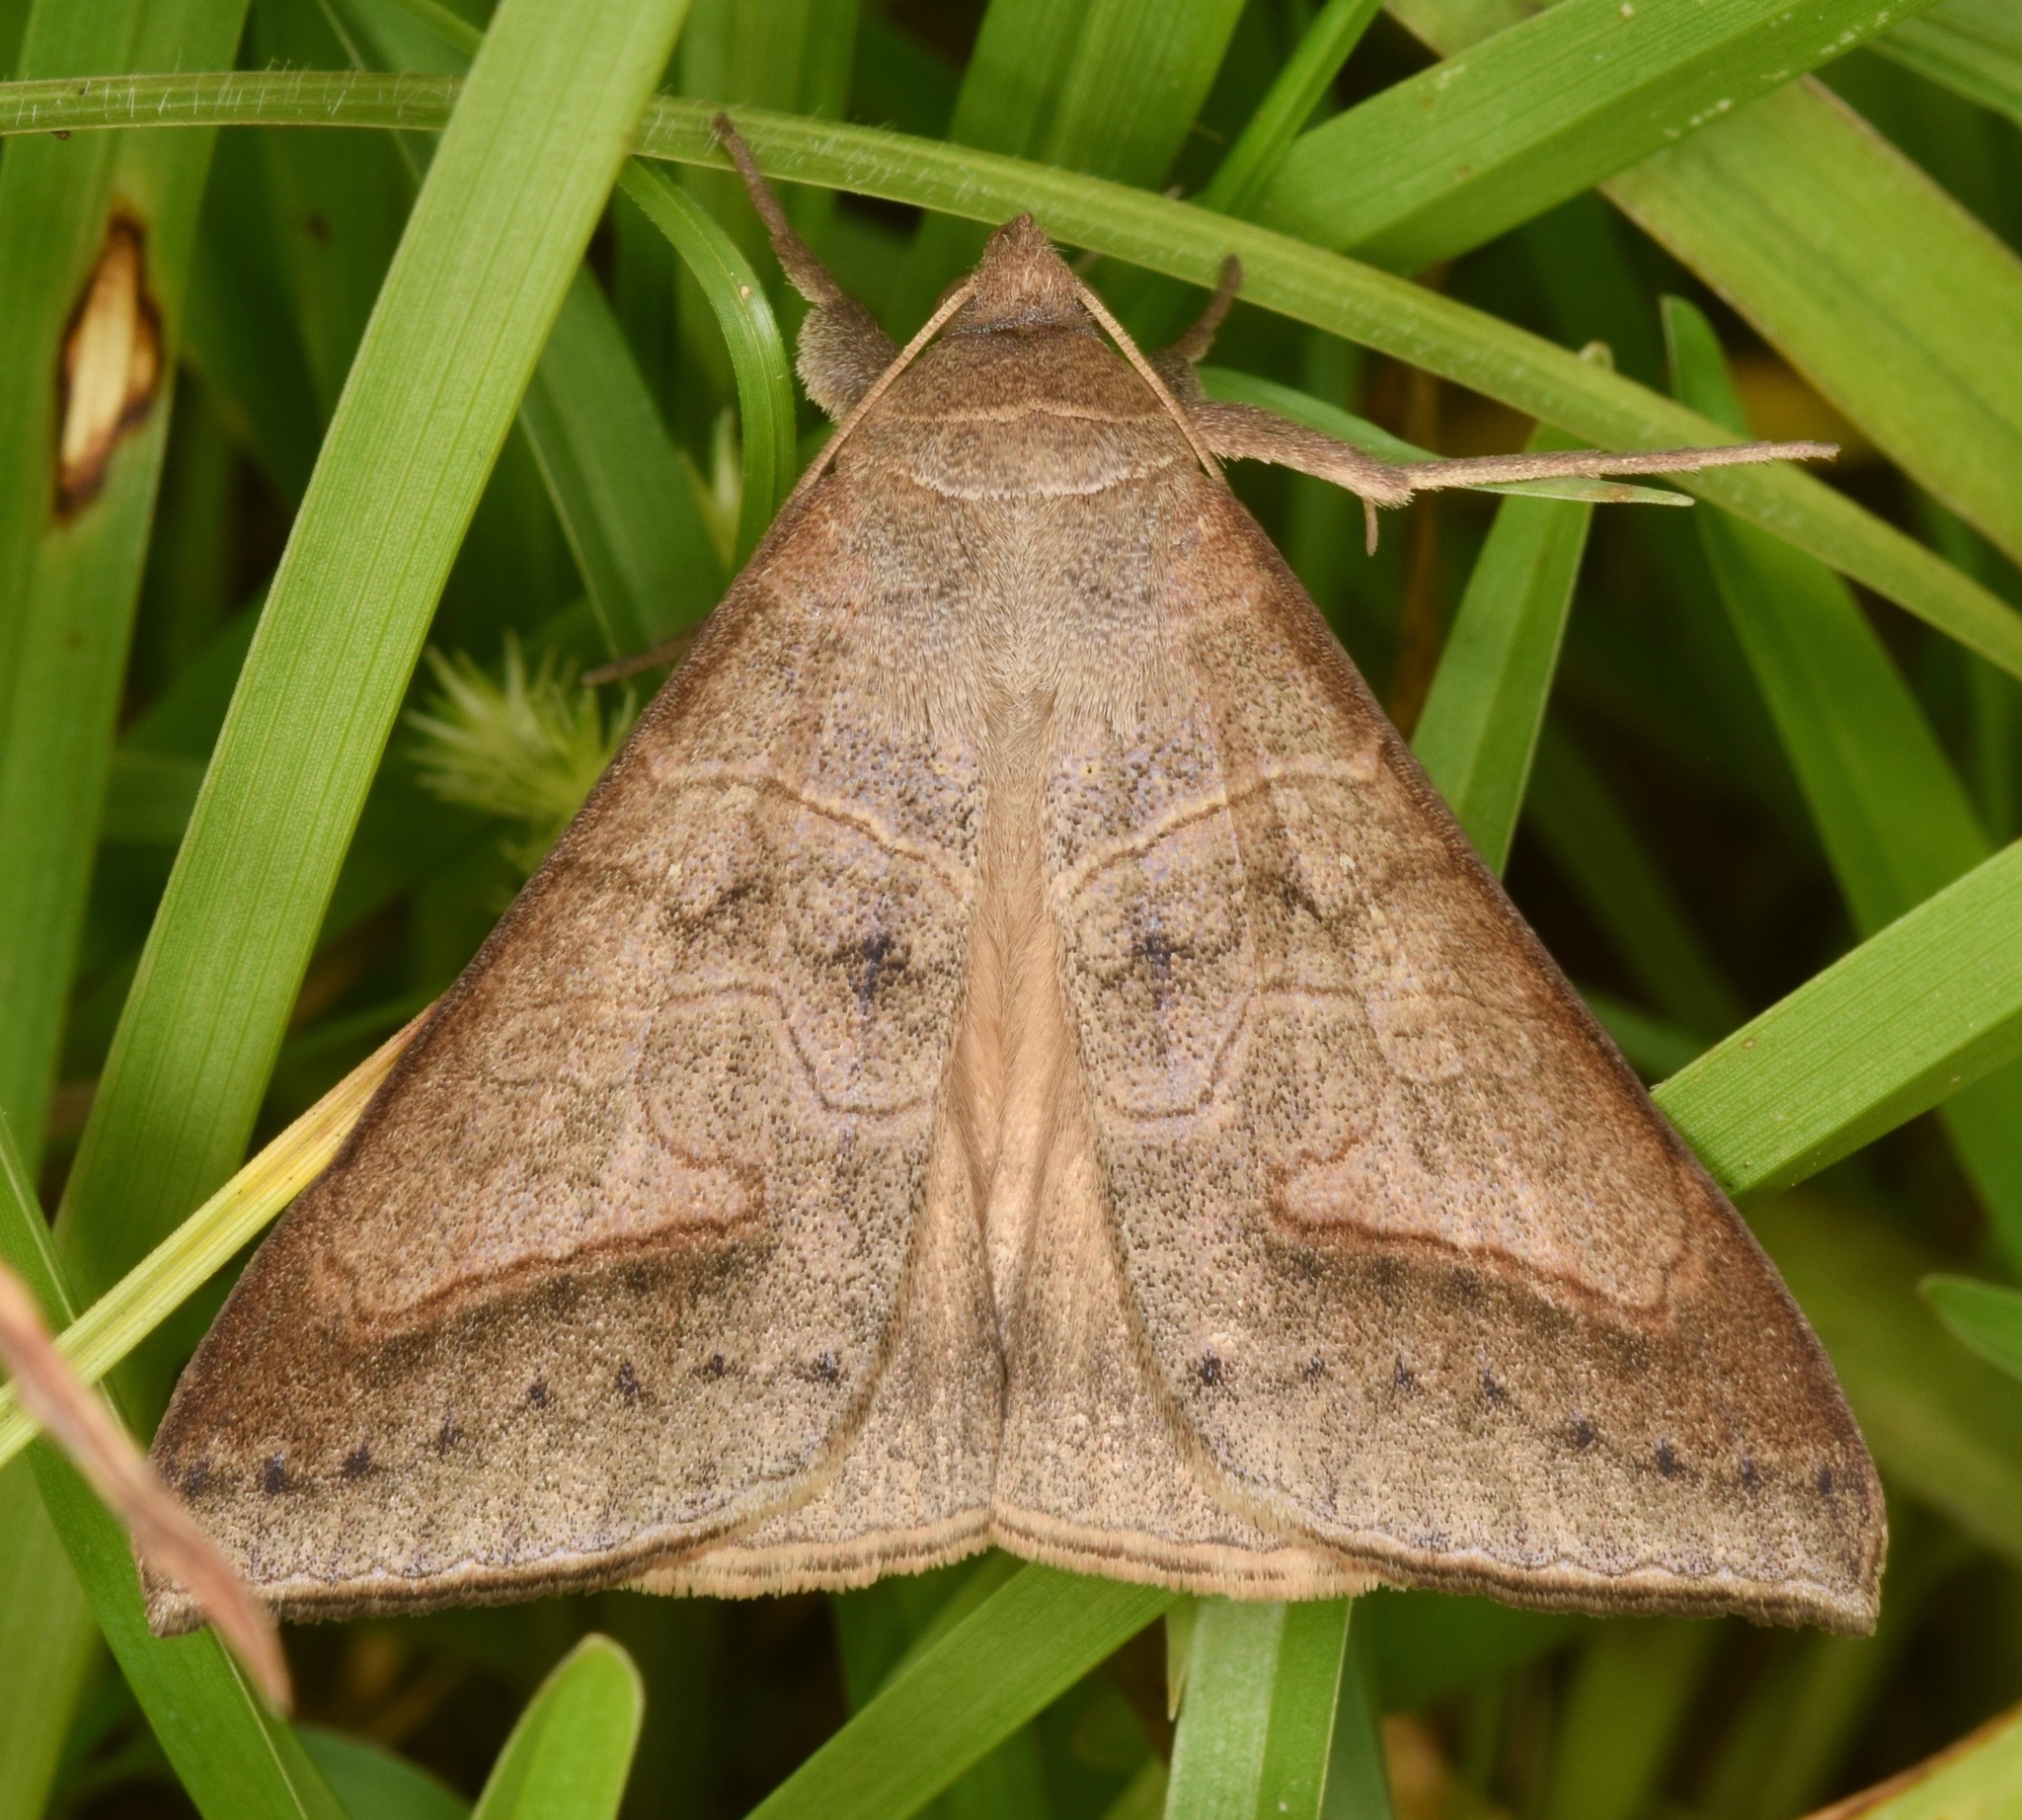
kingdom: Animalia
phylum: Arthropoda
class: Insecta
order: Lepidoptera
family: Erebidae
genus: Mocis
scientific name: Mocis marcida
